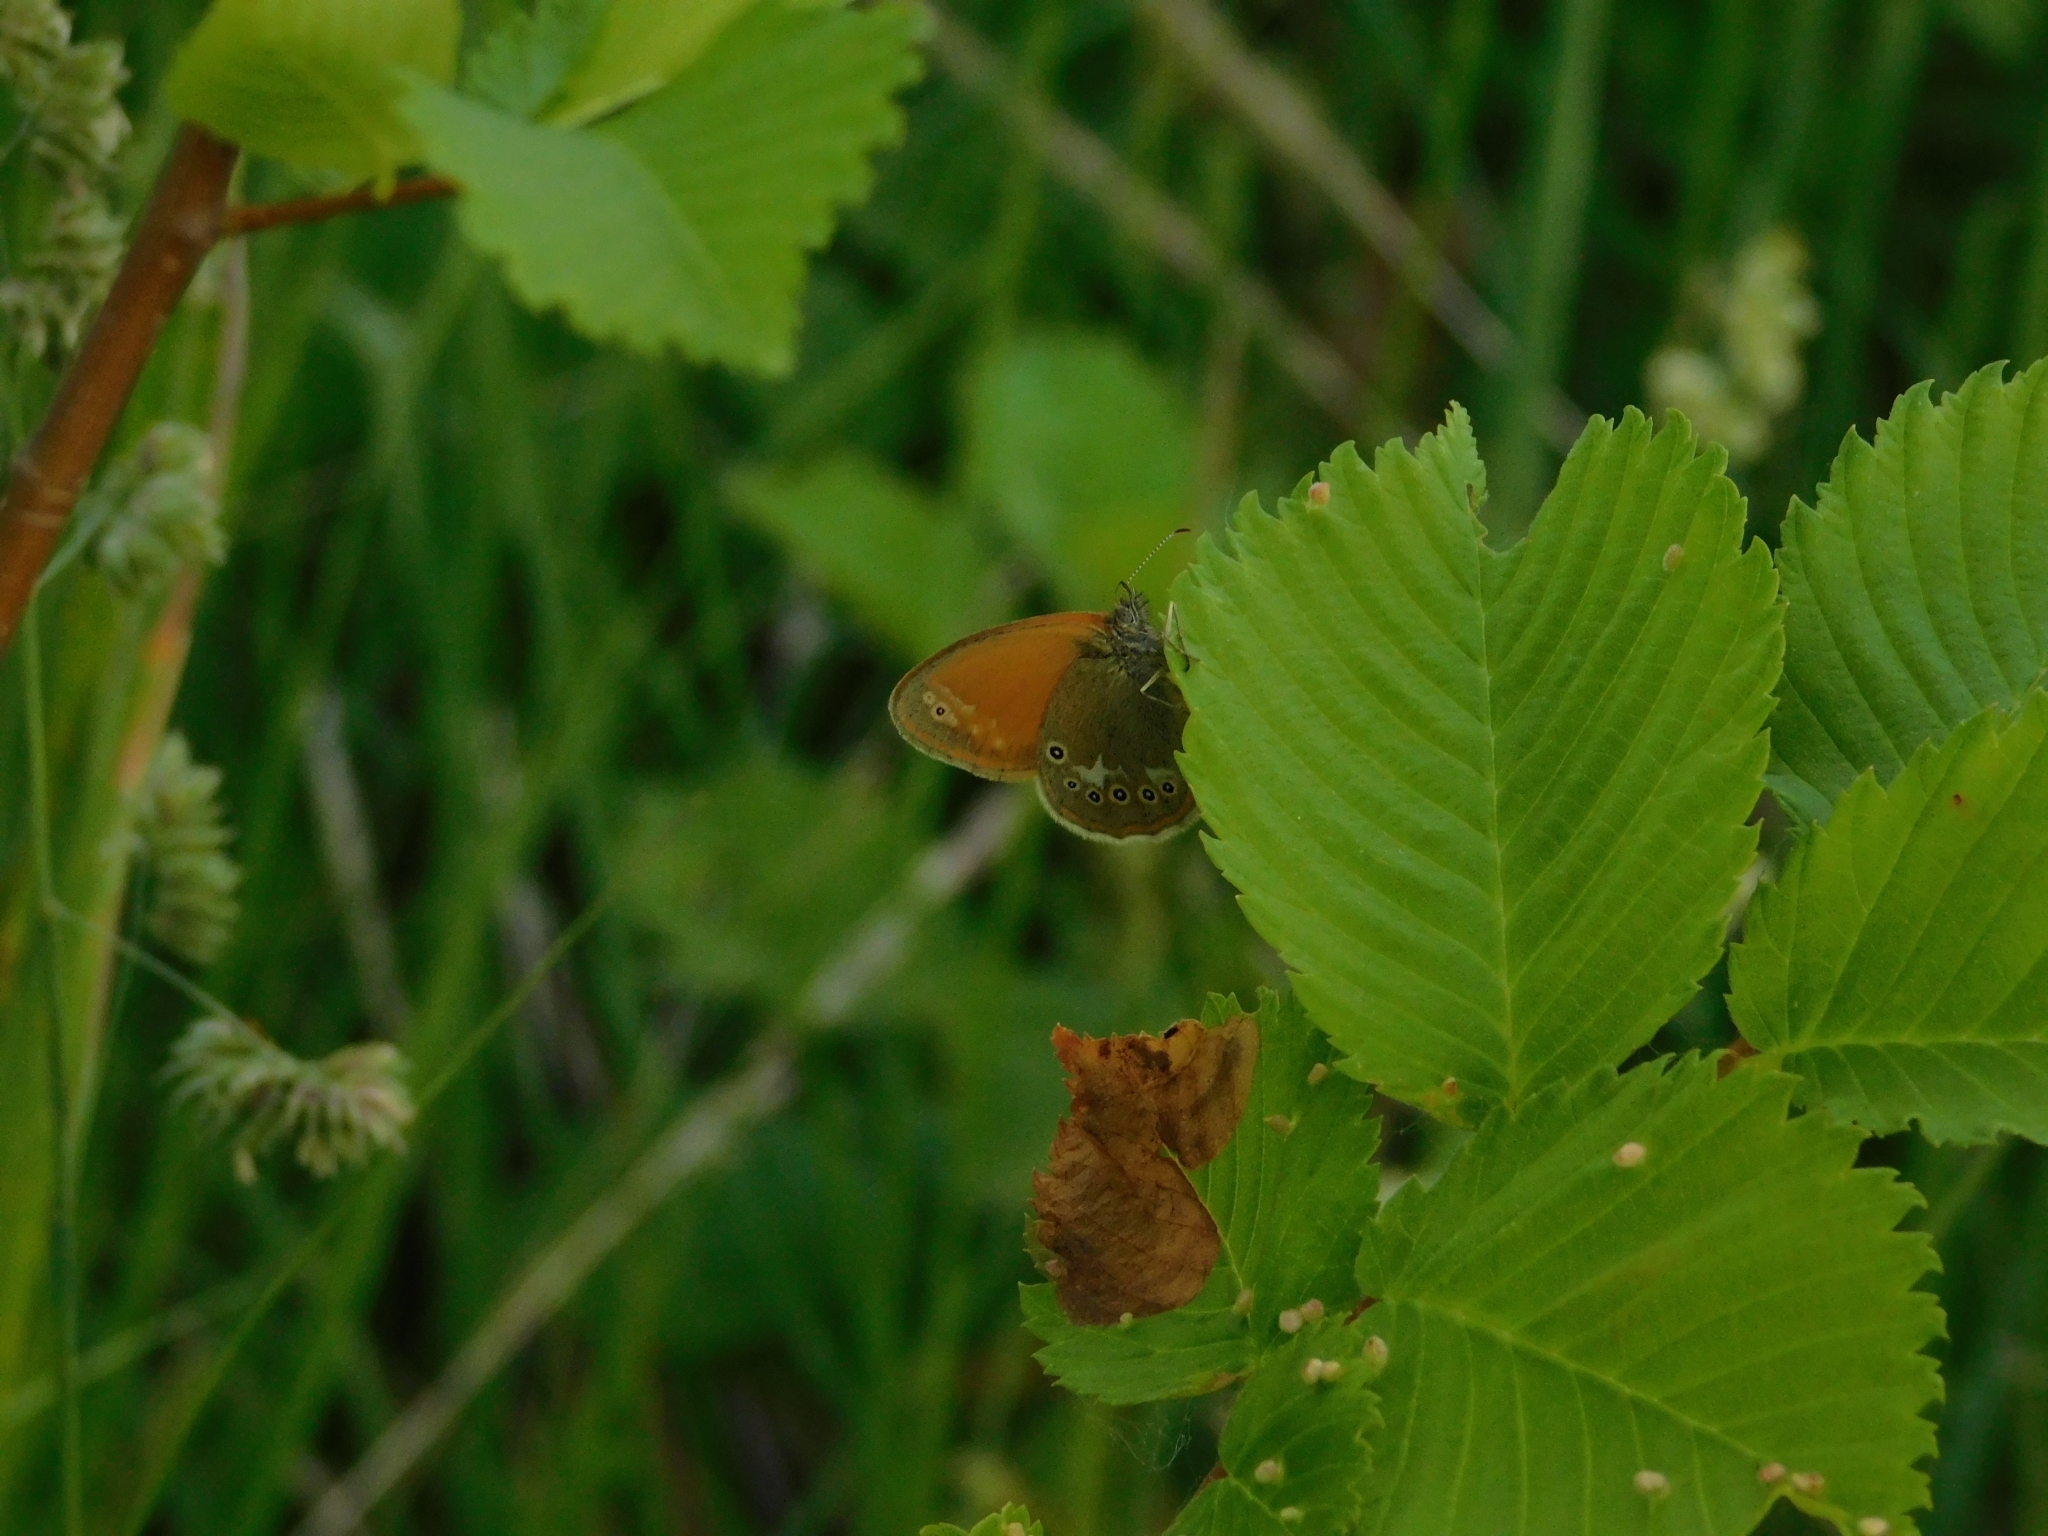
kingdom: Animalia
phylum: Arthropoda
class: Insecta
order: Lepidoptera
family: Nymphalidae
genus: Coenonympha
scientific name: Coenonympha iphis
